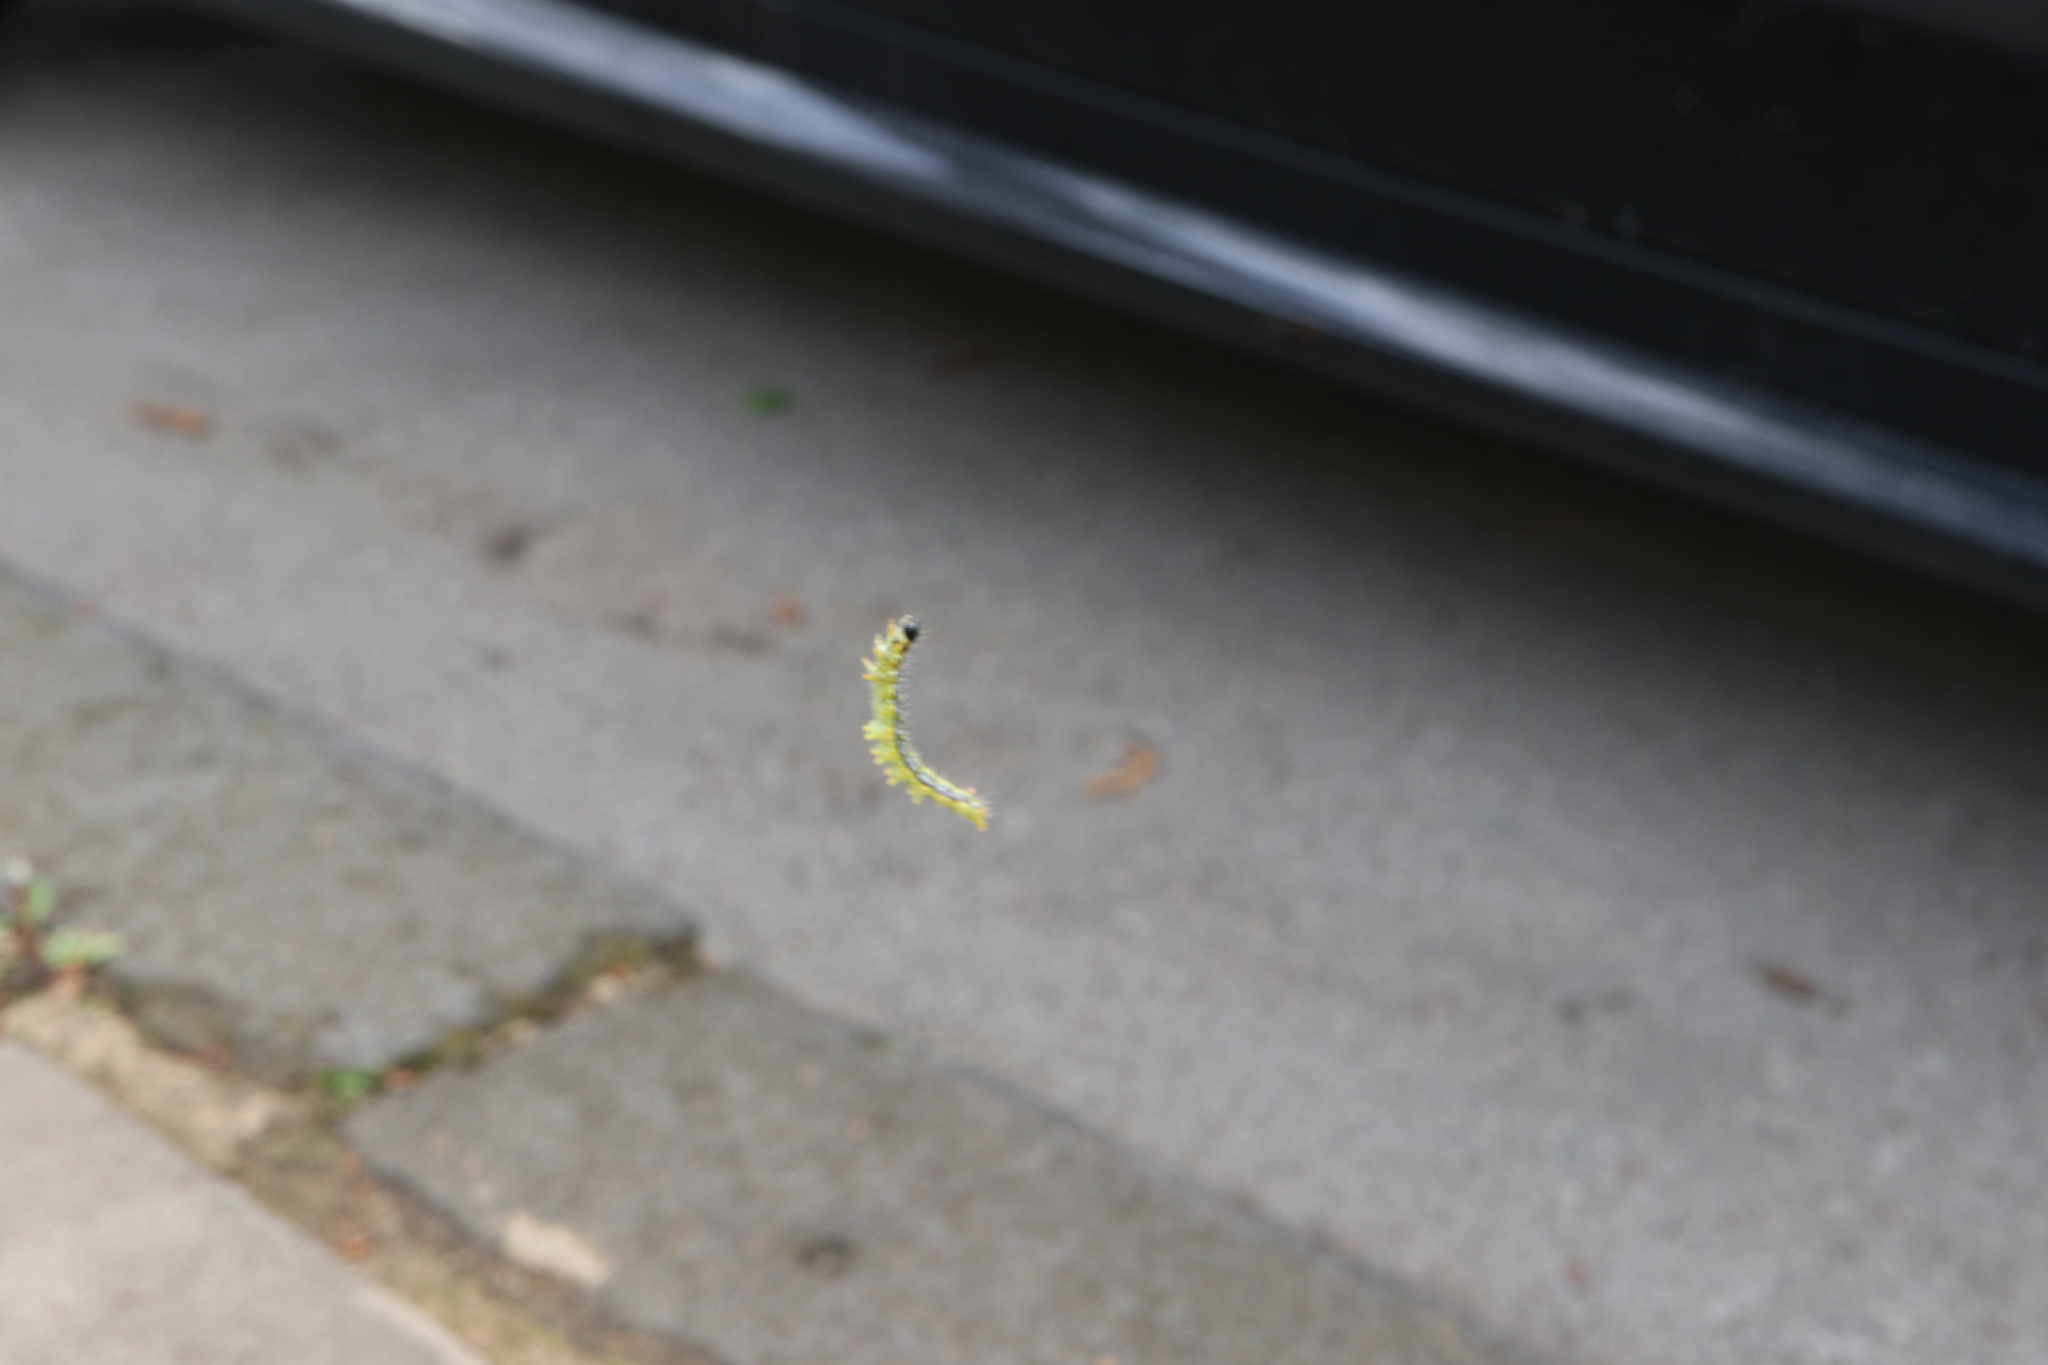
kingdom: Animalia
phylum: Arthropoda
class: Insecta
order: Lepidoptera
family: Crambidae
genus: Cydalima
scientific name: Cydalima perspectalis
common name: Box tree moth
